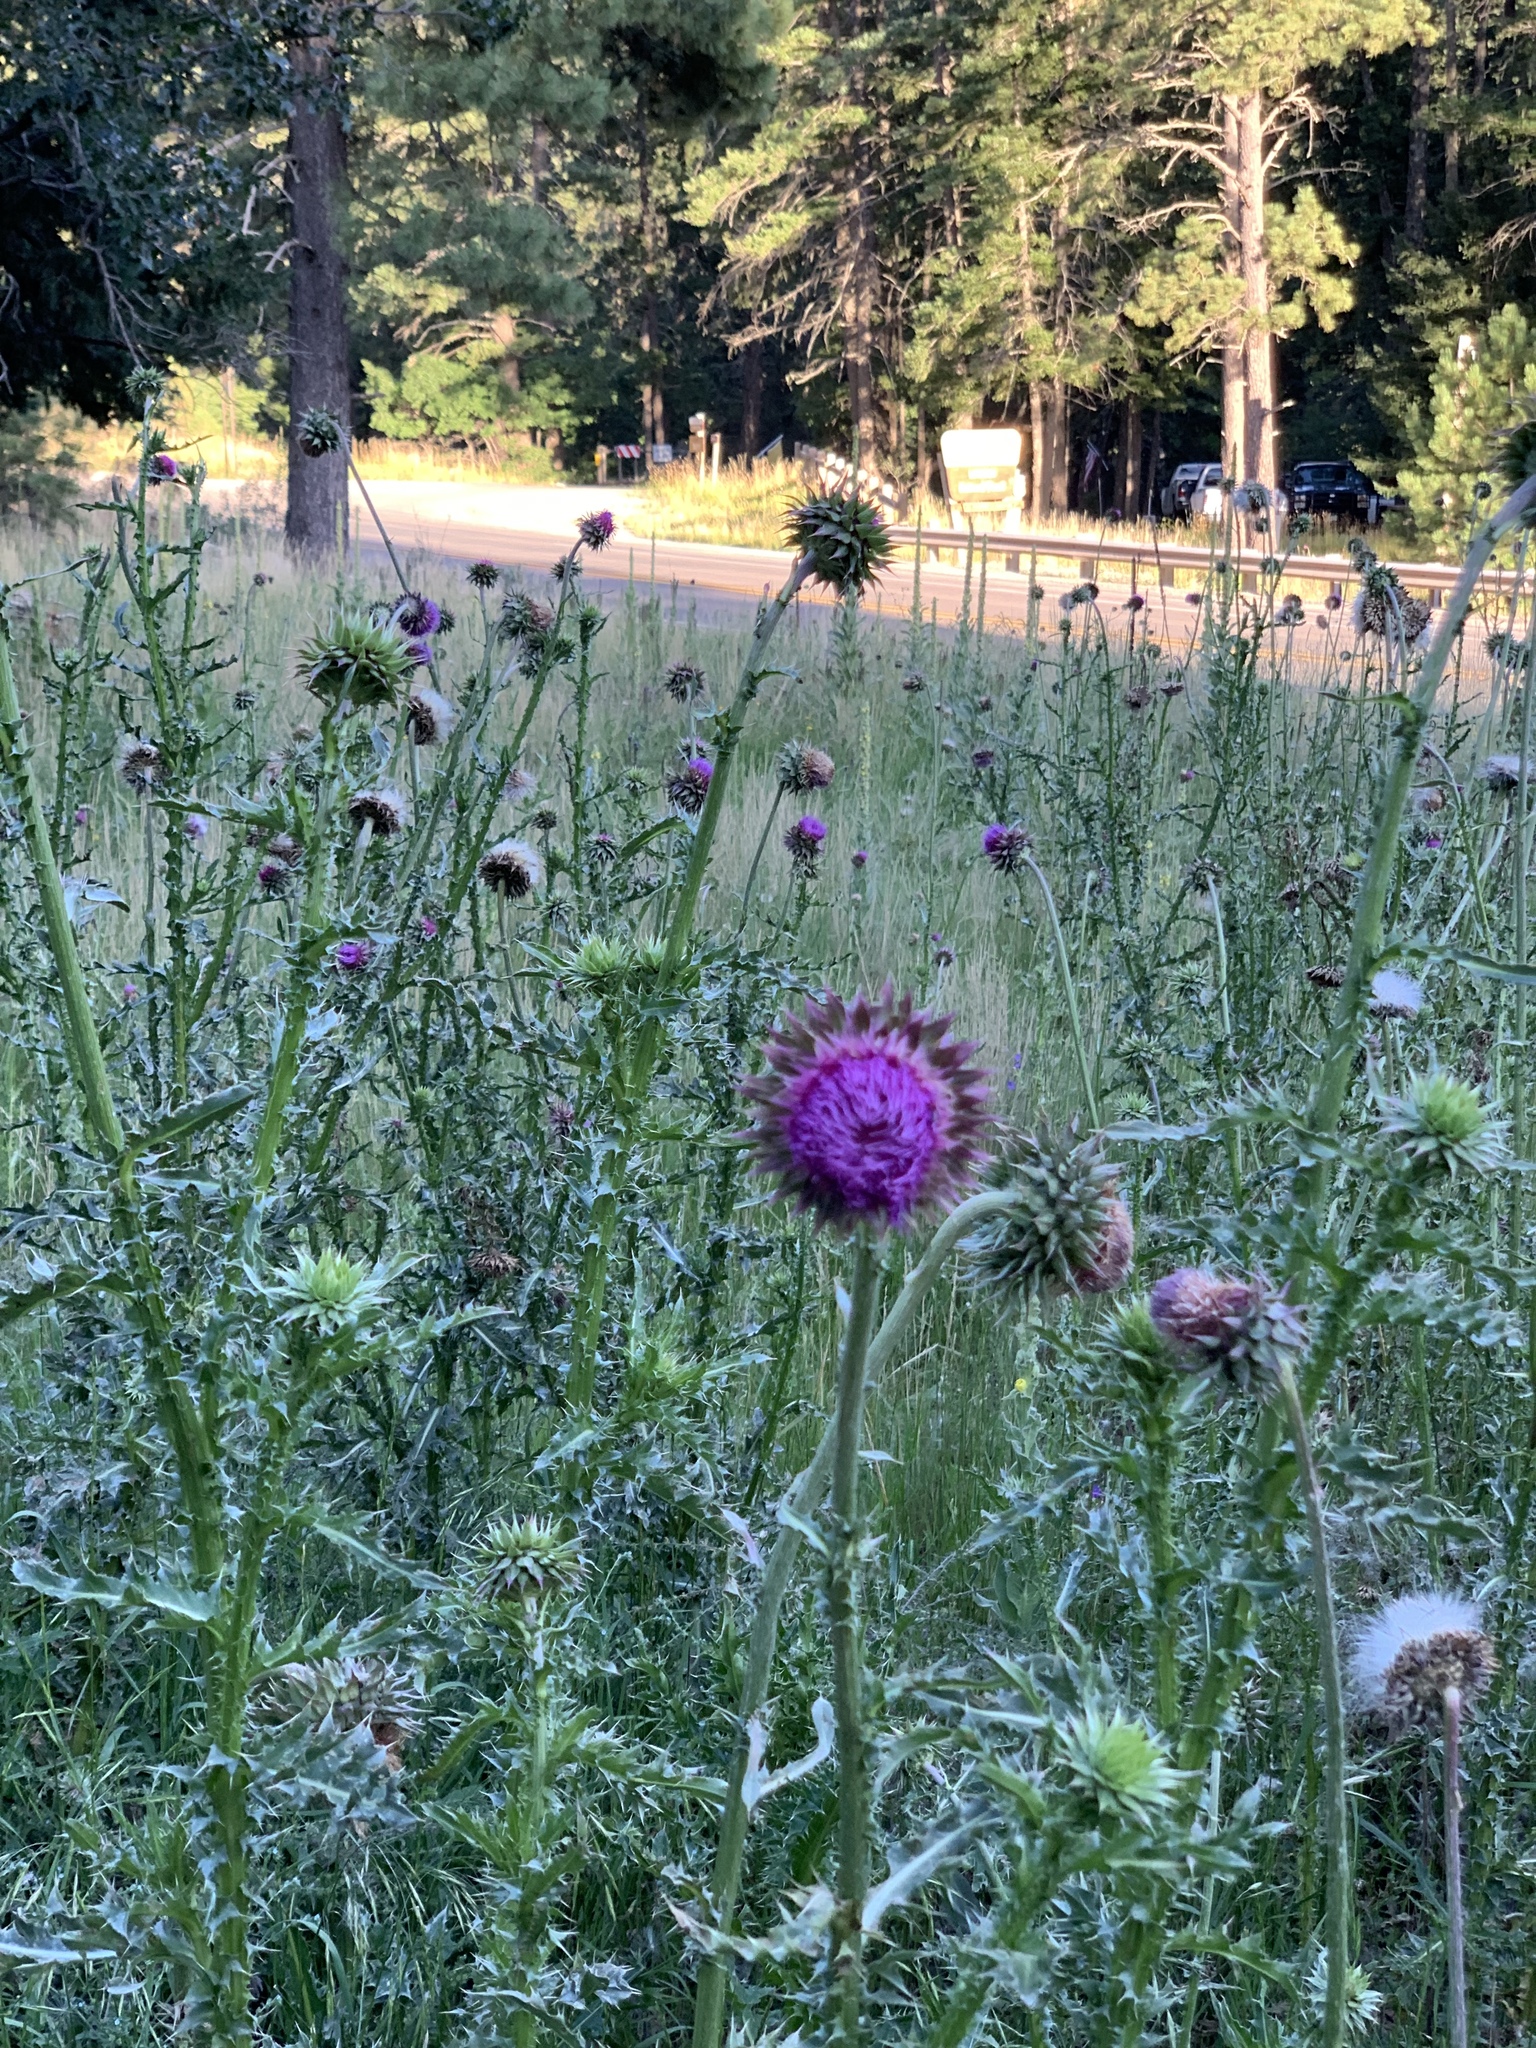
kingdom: Plantae
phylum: Tracheophyta
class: Magnoliopsida
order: Asterales
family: Asteraceae
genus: Carduus
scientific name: Carduus nutans
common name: Musk thistle
